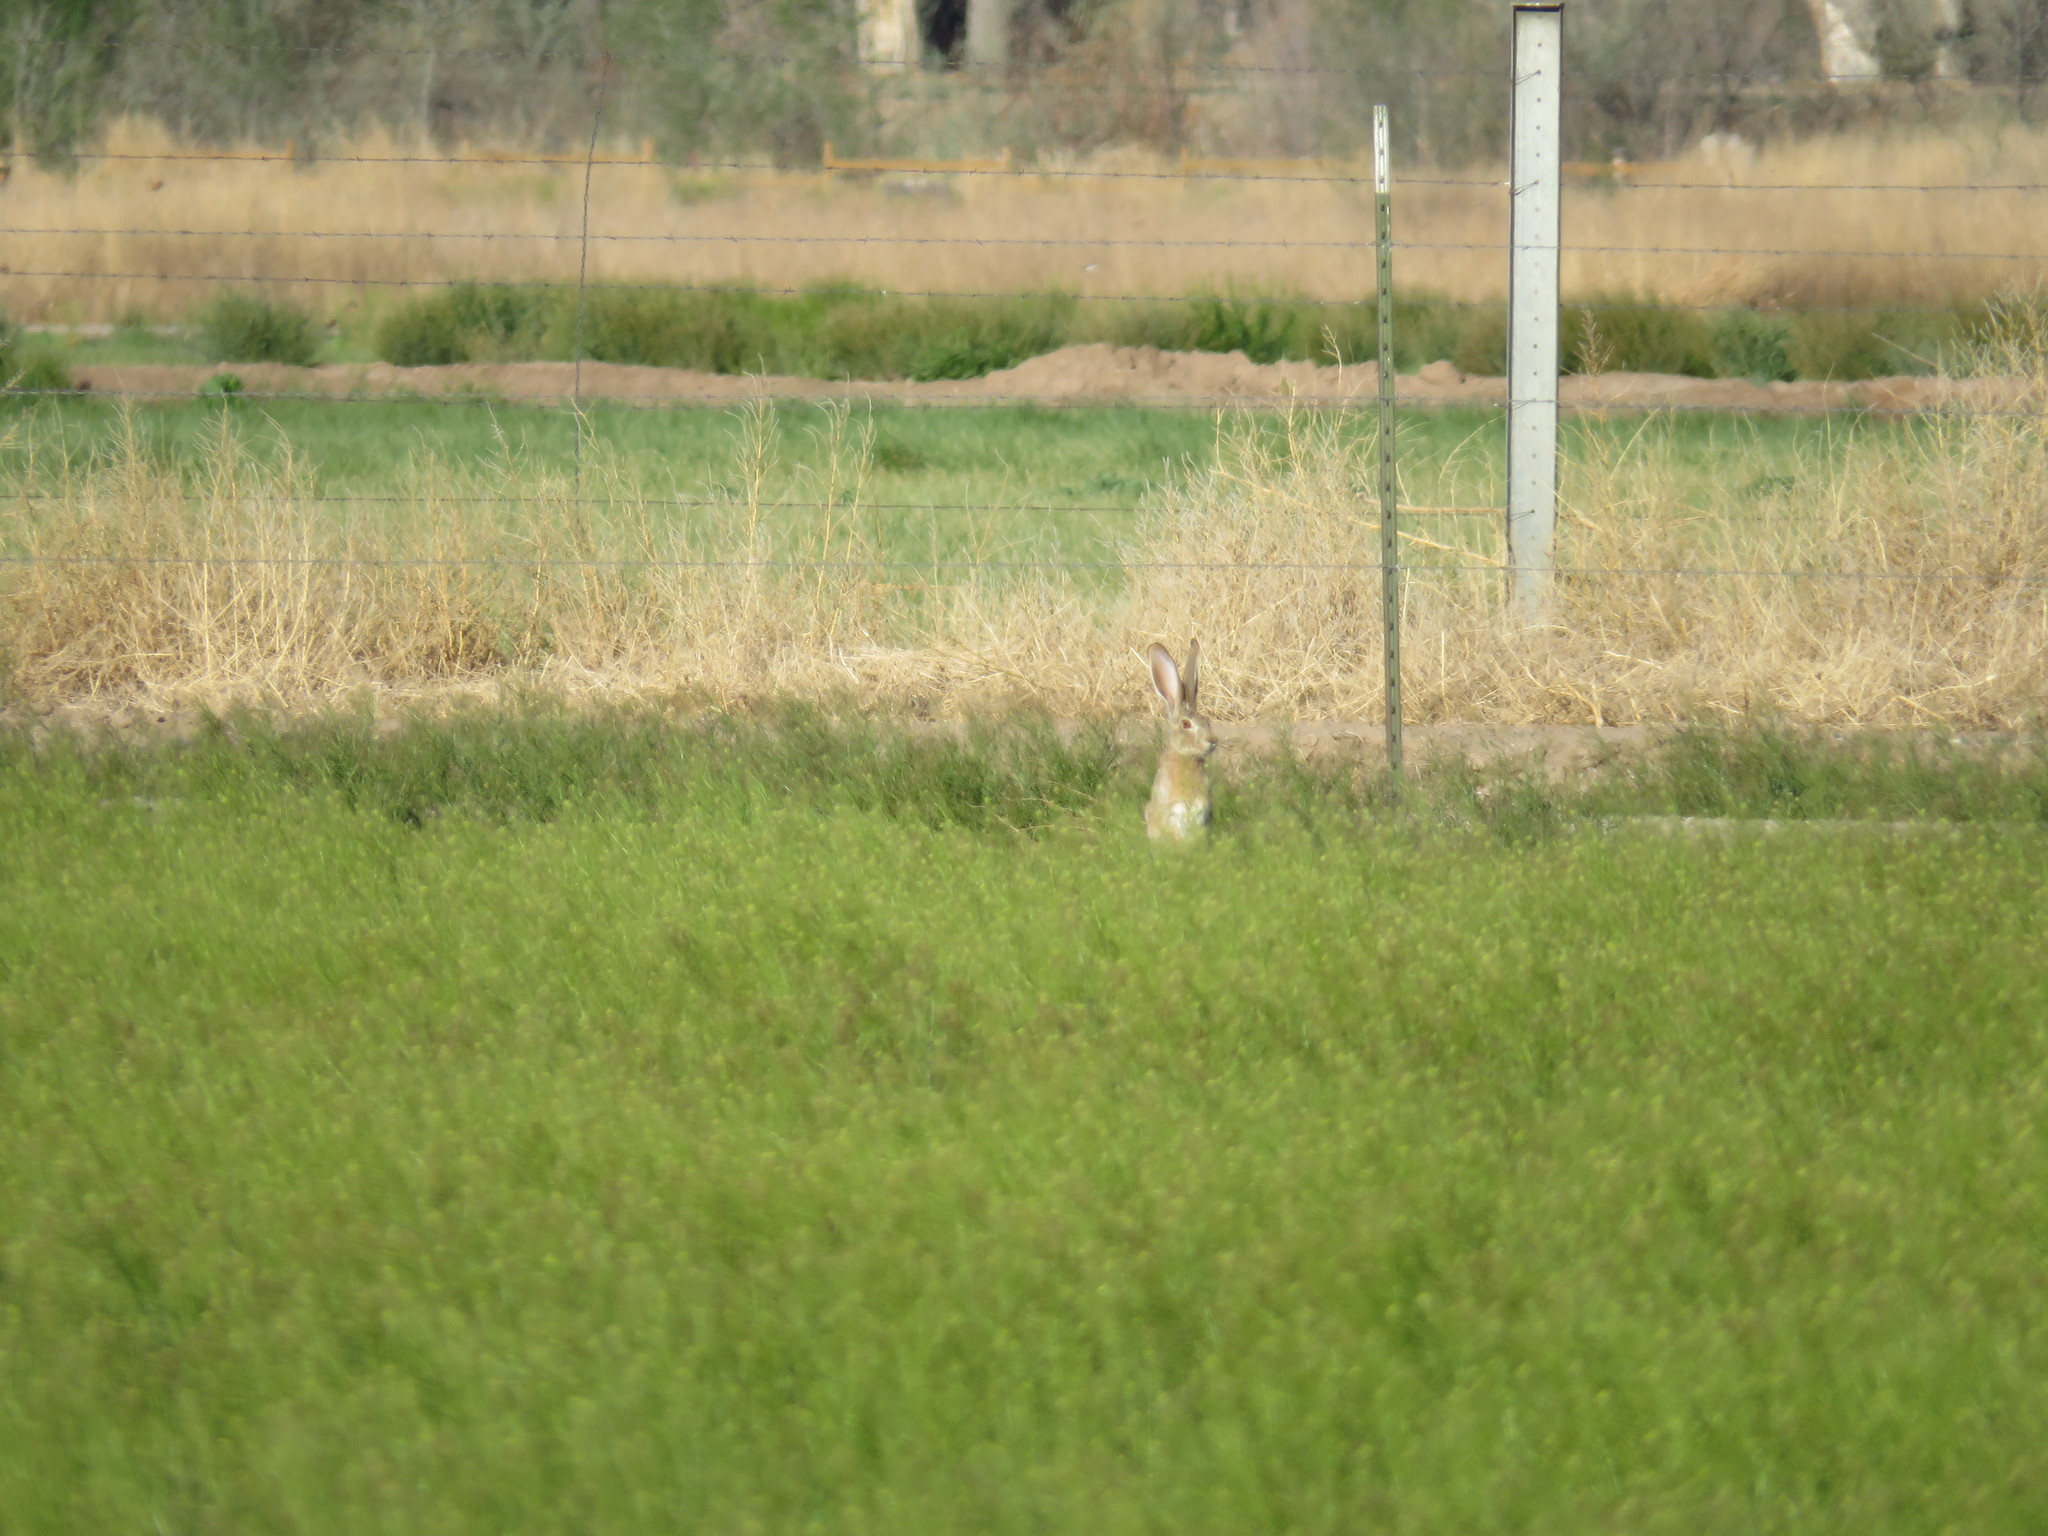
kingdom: Animalia
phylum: Chordata
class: Mammalia
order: Lagomorpha
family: Leporidae
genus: Lepus
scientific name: Lepus californicus
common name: Black-tailed jackrabbit
